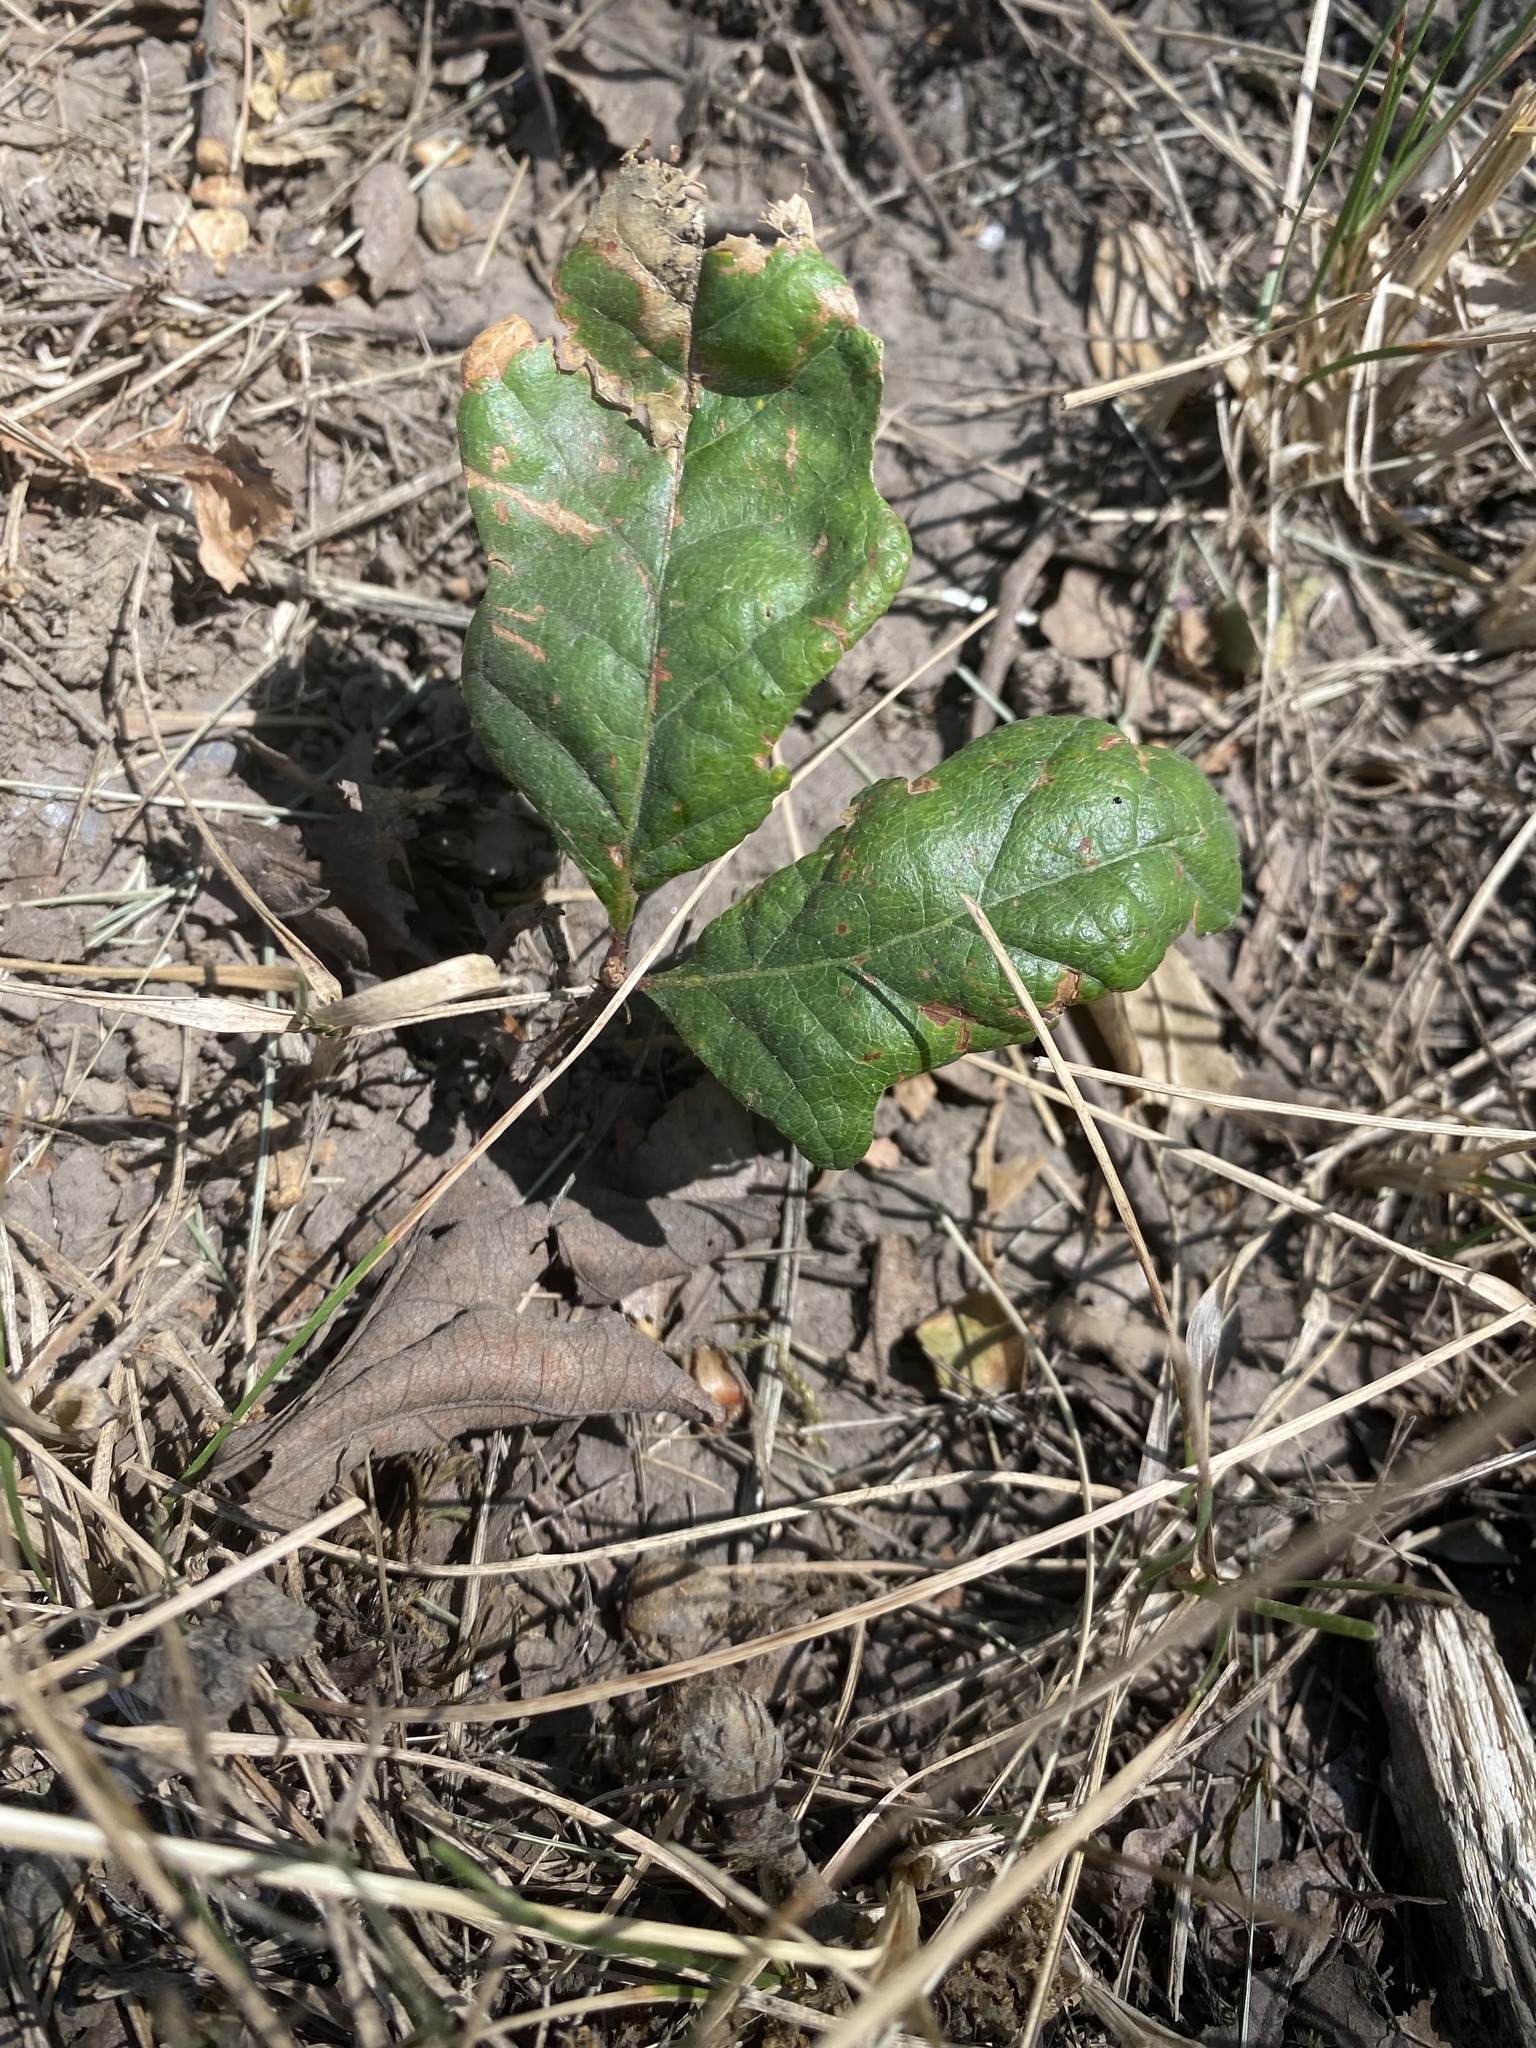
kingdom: Plantae
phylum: Tracheophyta
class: Magnoliopsida
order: Fagales
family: Fagaceae
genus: Quercus
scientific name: Quercus garryana
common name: Garry oak
